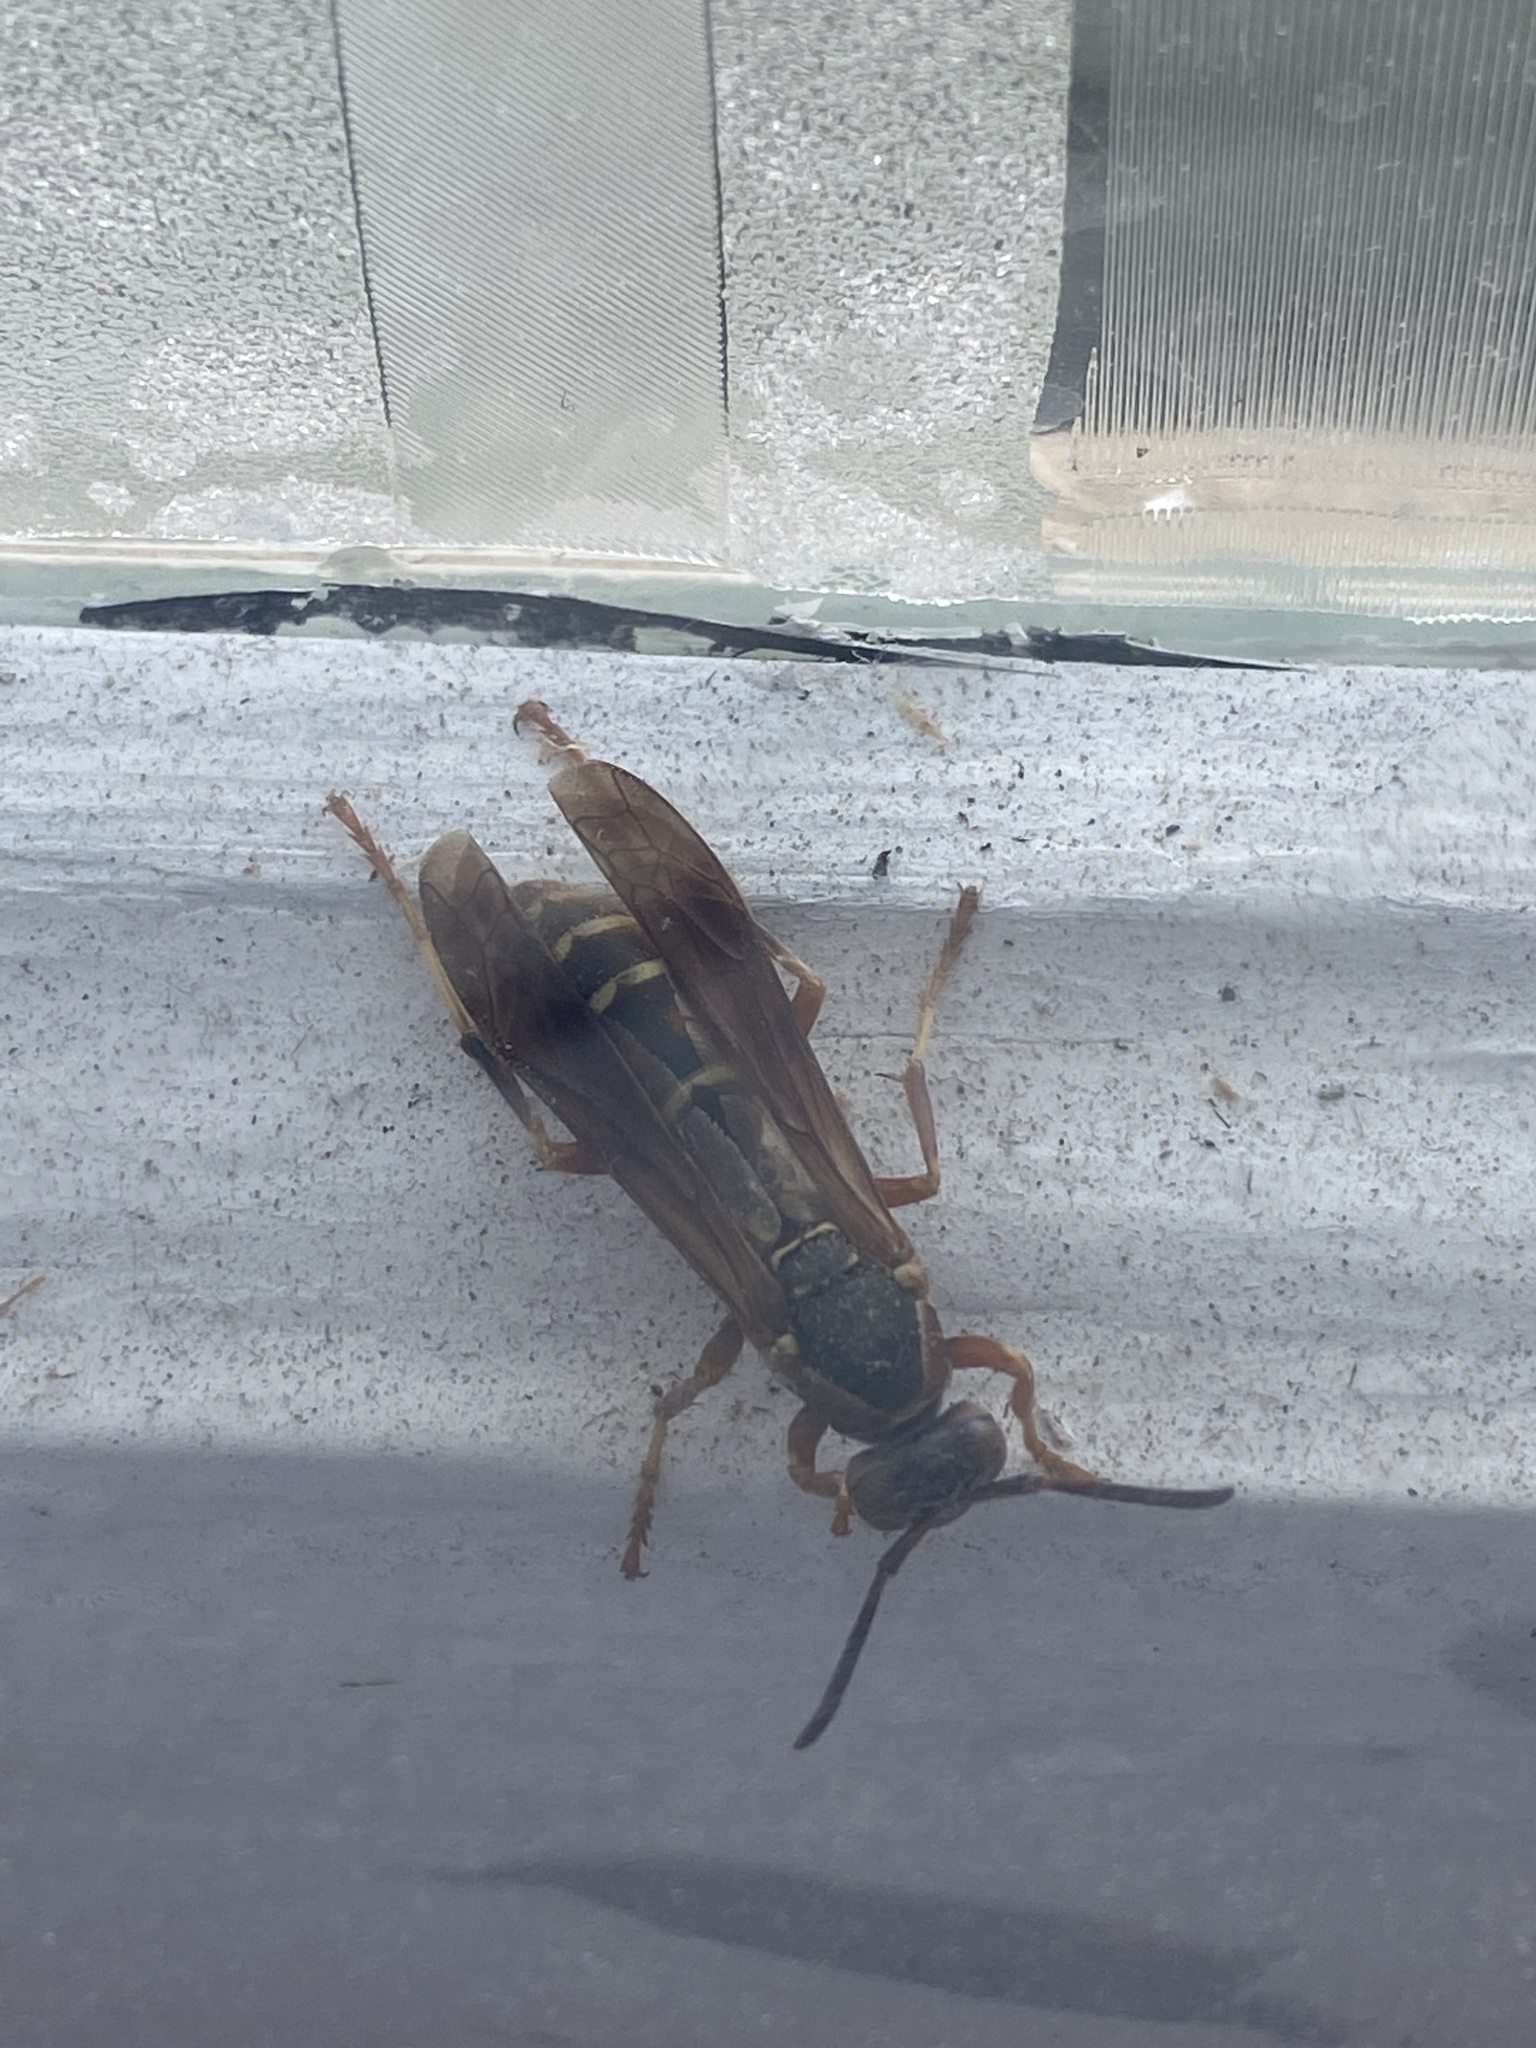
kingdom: Animalia
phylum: Arthropoda
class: Insecta
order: Hymenoptera
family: Eumenidae
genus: Polistes
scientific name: Polistes fuscatus
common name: Dark paper wasp
